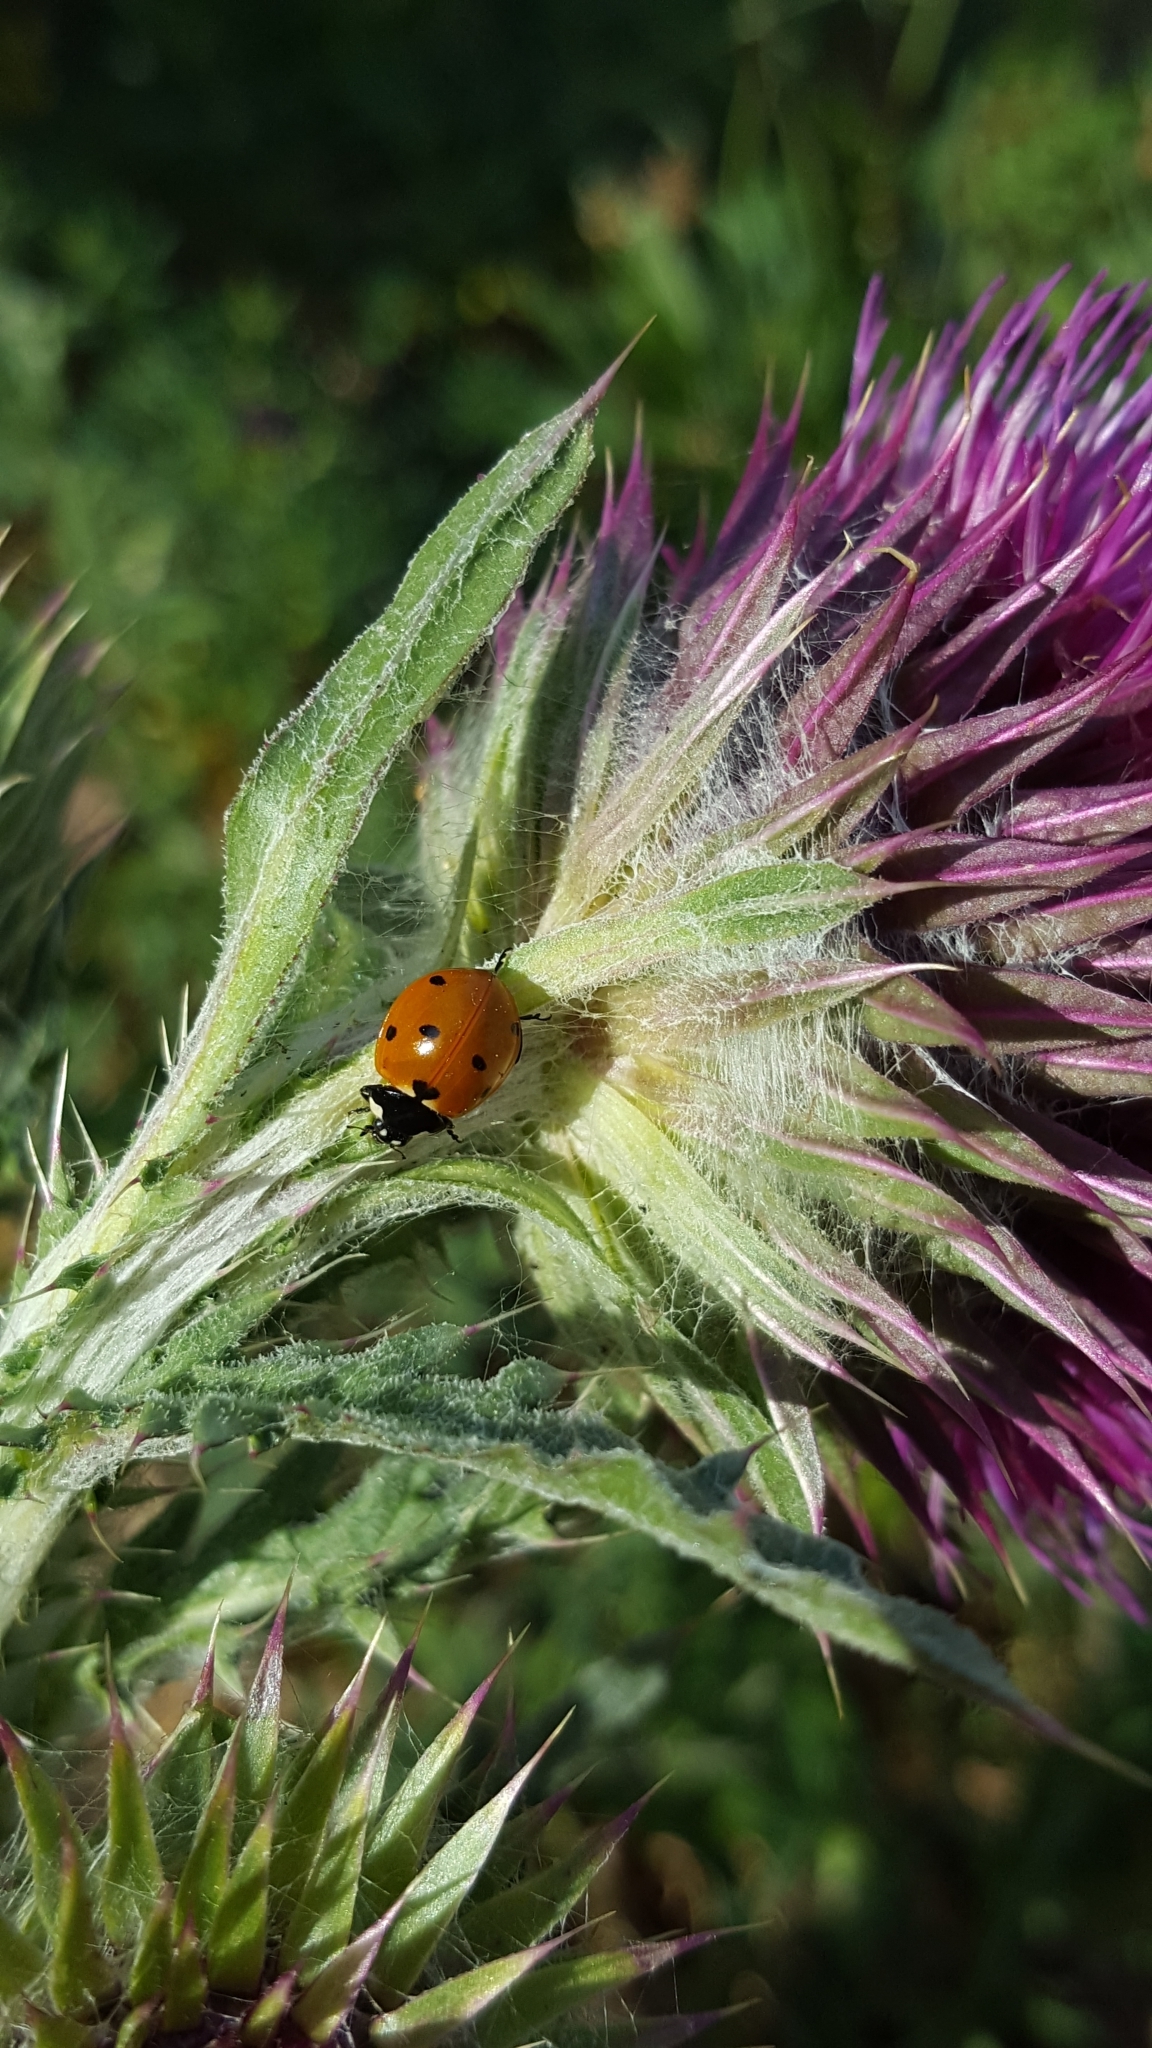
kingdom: Animalia
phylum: Arthropoda
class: Insecta
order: Coleoptera
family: Coccinellidae
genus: Coccinella
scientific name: Coccinella septempunctata
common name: Sevenspotted lady beetle
